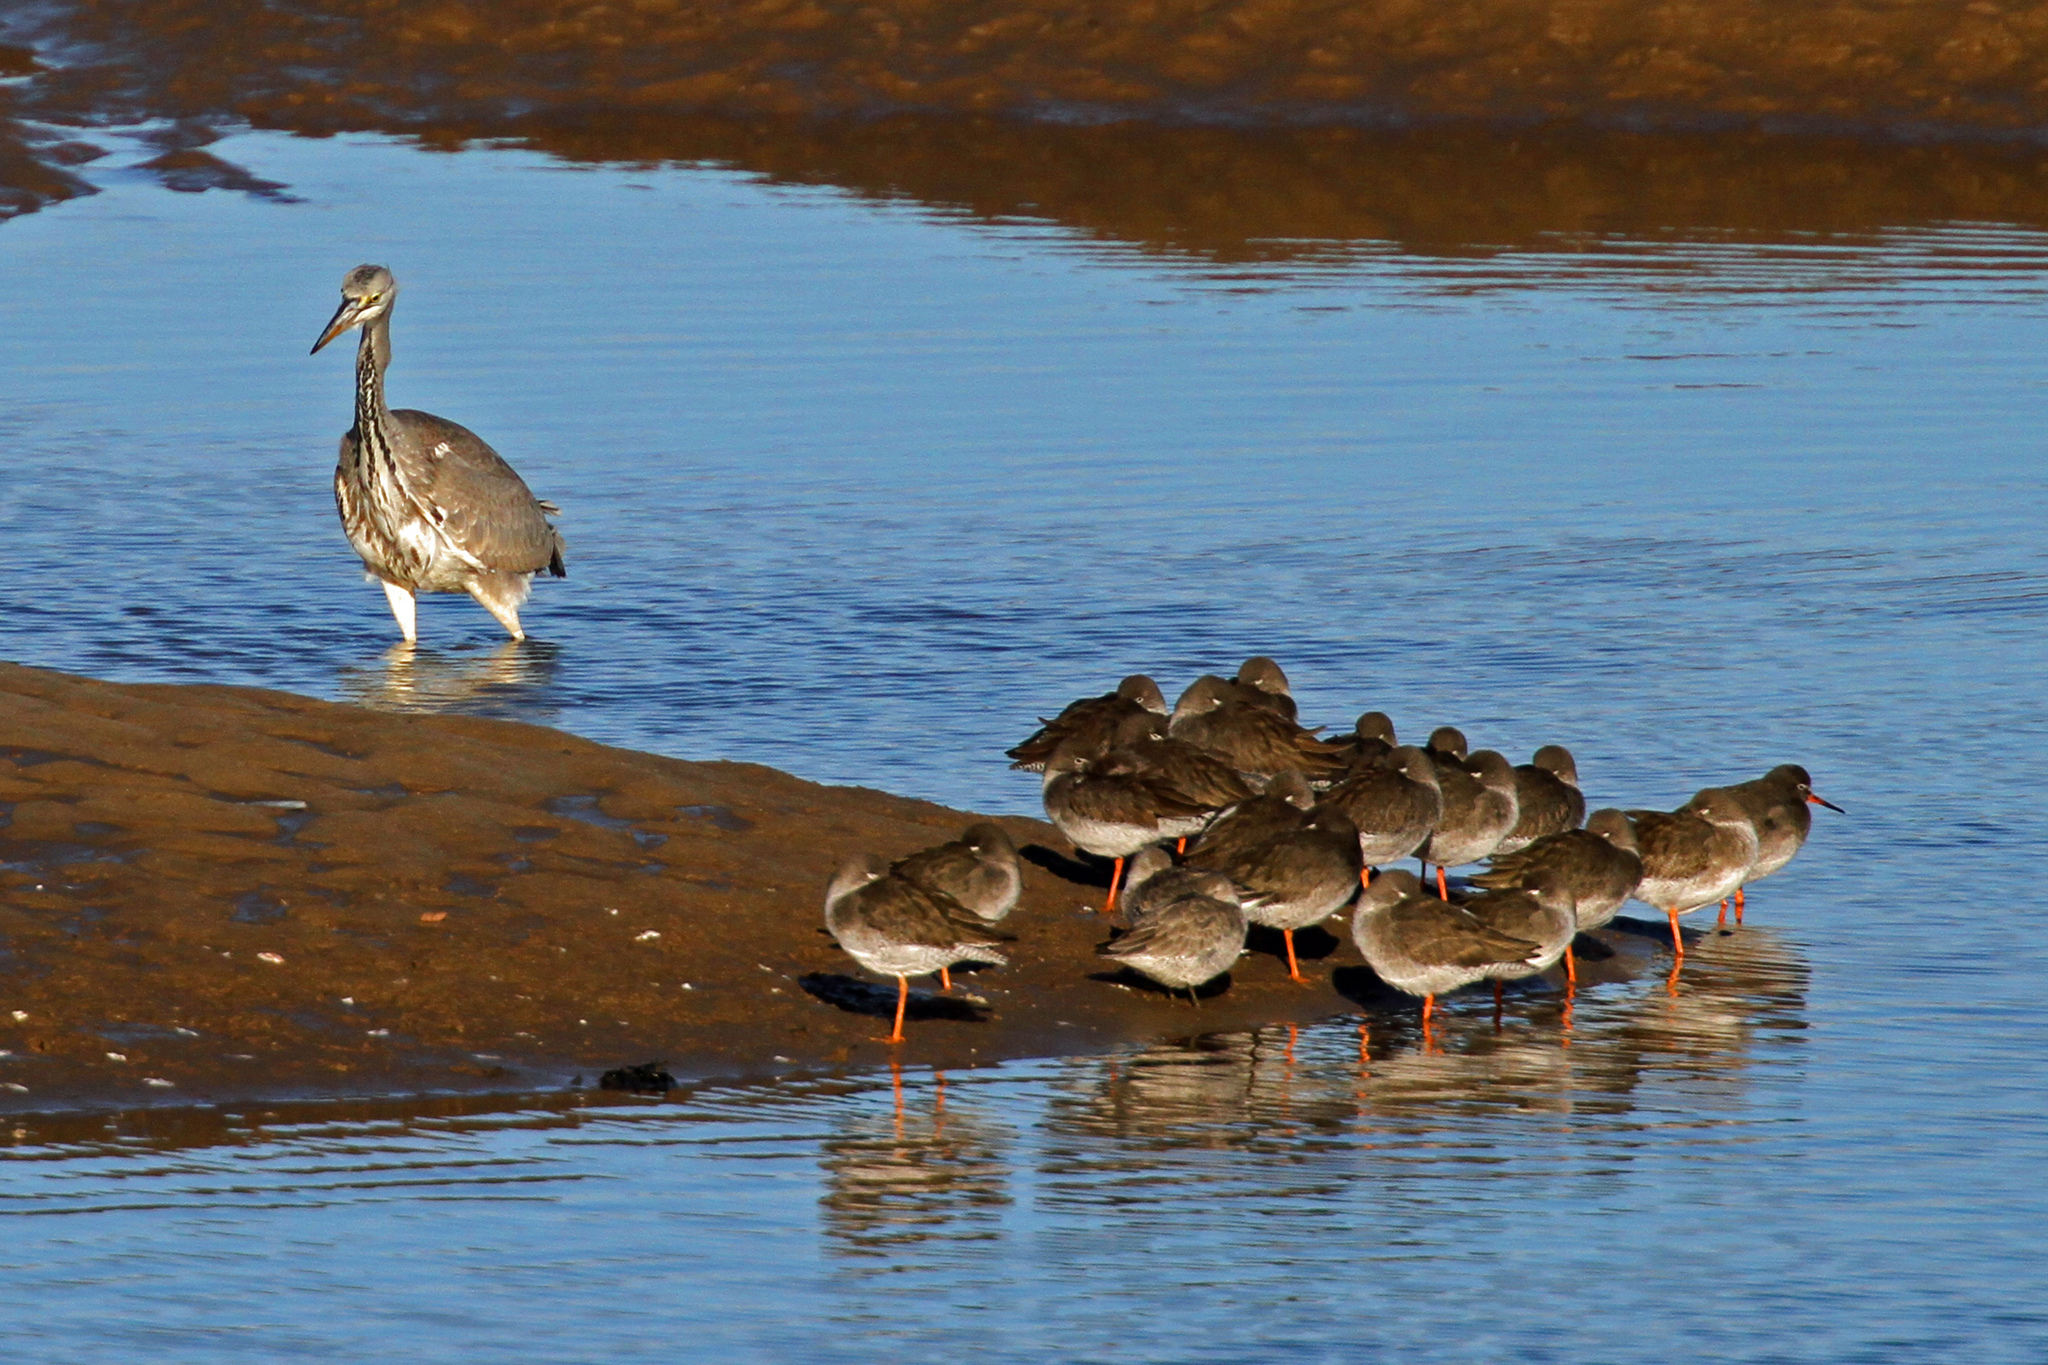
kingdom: Animalia
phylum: Chordata
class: Aves
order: Pelecaniformes
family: Ardeidae
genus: Ardea
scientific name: Ardea cinerea
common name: Grey heron
